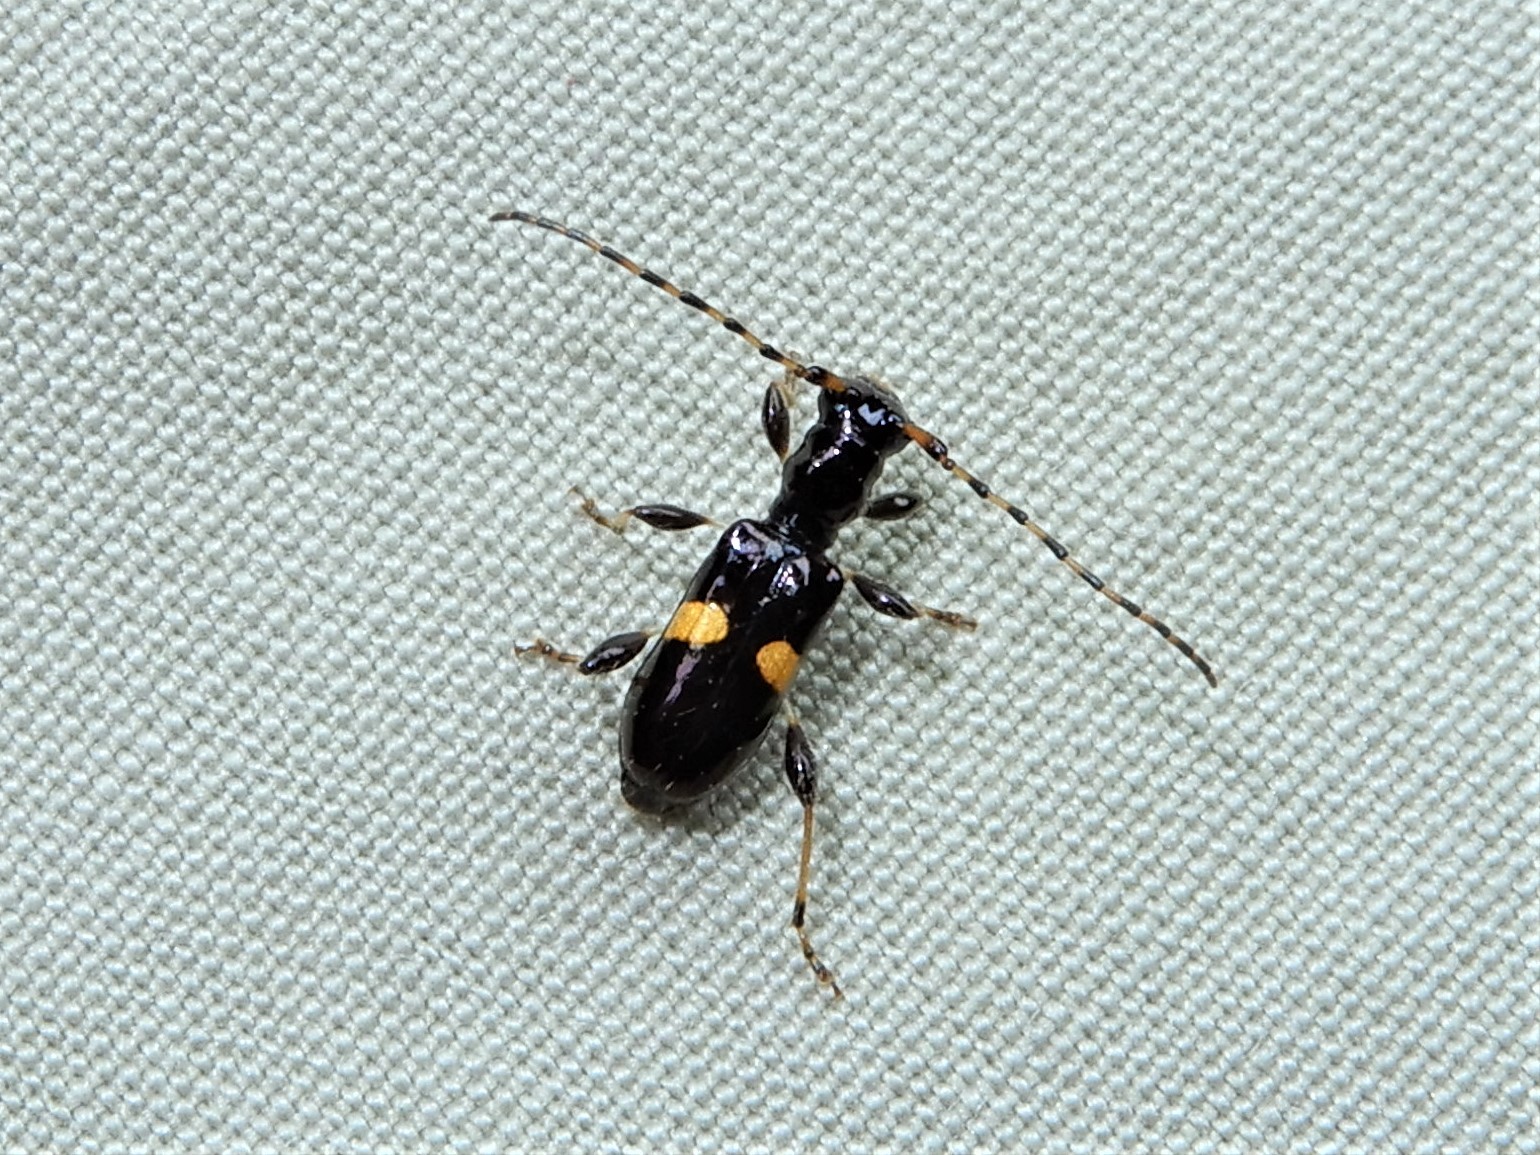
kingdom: Animalia
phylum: Arthropoda
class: Insecta
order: Coleoptera
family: Cerambycidae
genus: Zorion
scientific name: Zorion guttigerum
